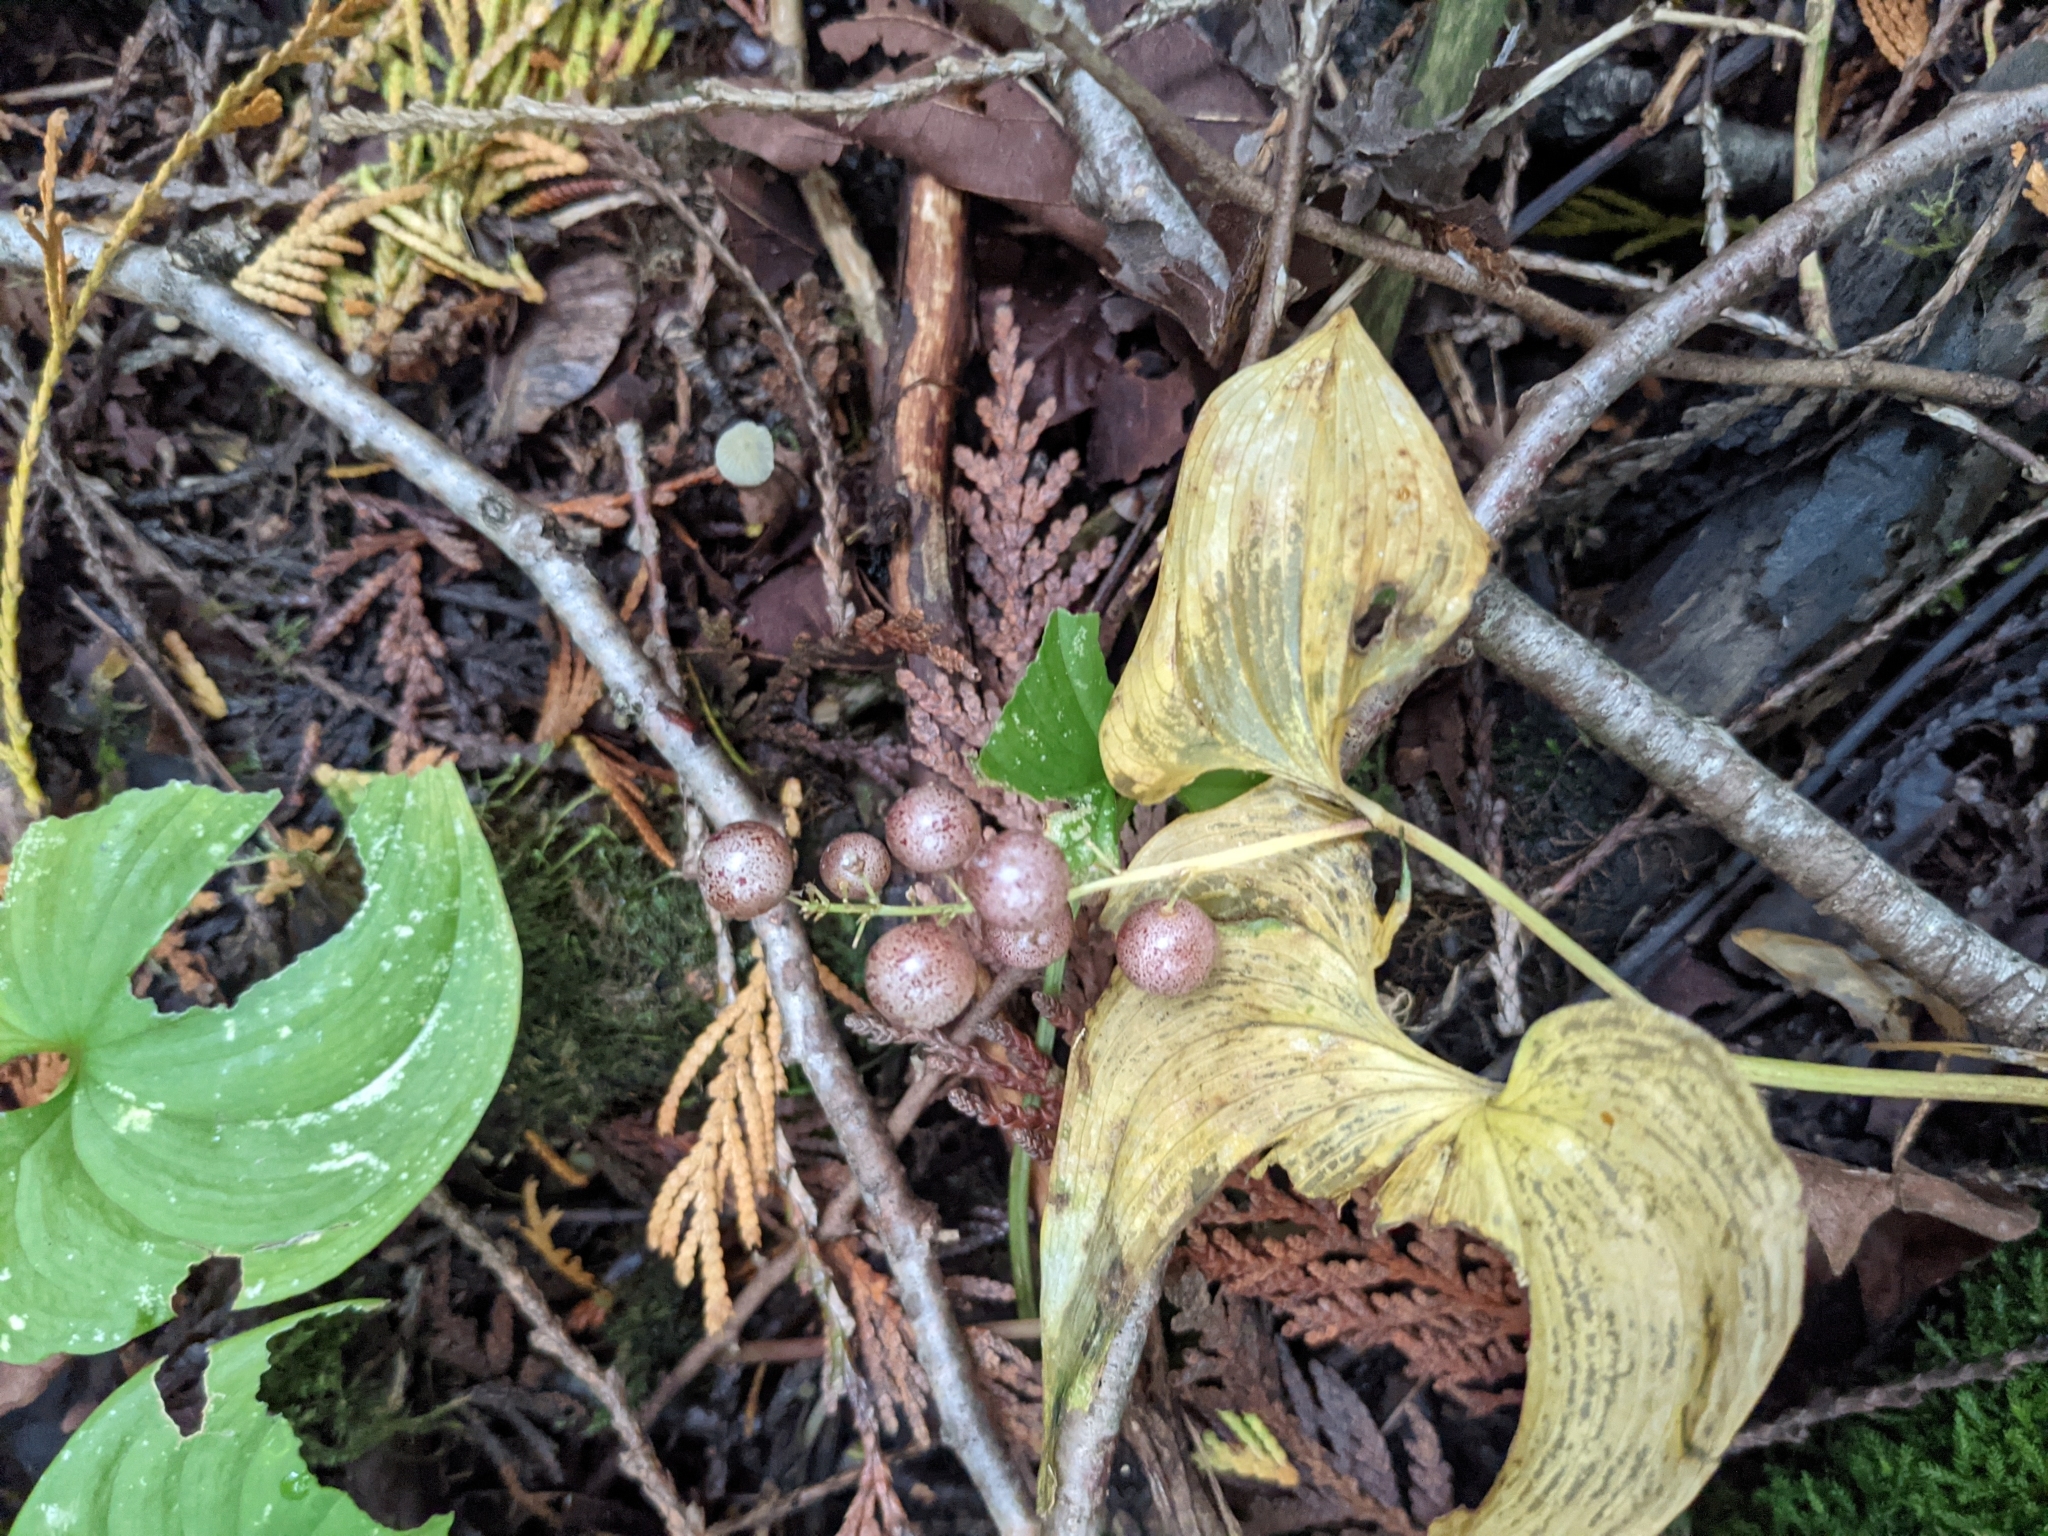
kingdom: Plantae
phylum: Tracheophyta
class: Liliopsida
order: Asparagales
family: Asparagaceae
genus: Maianthemum
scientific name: Maianthemum dilatatum
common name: False lily-of-the-valley
